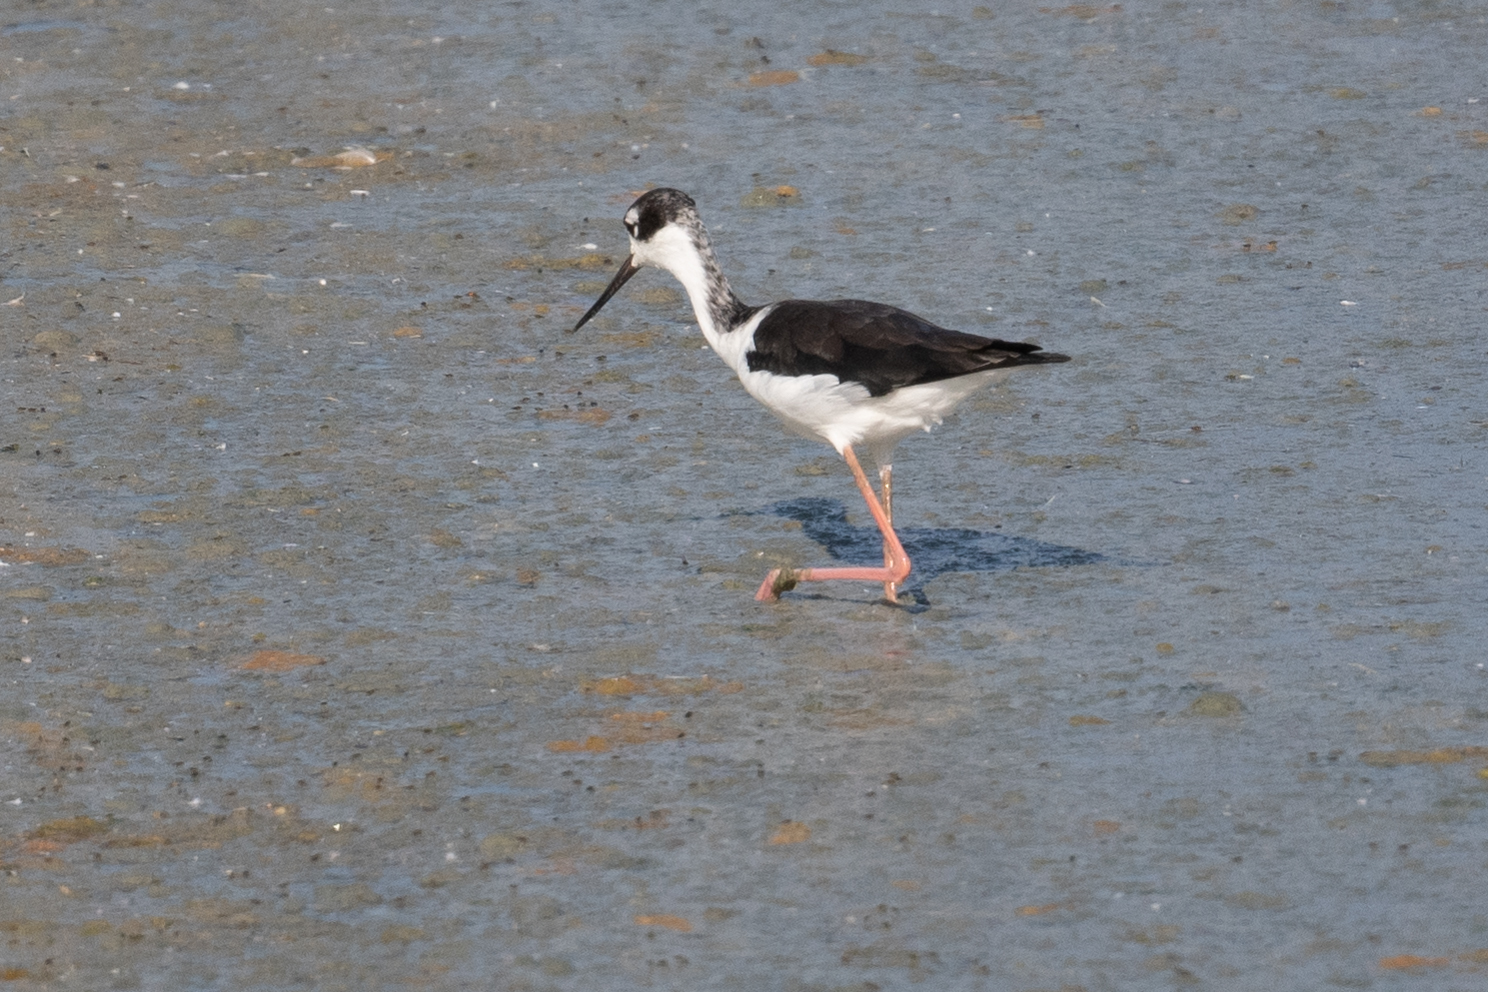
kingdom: Animalia
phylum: Chordata
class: Aves
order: Charadriiformes
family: Recurvirostridae
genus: Himantopus
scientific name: Himantopus mexicanus
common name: Black-necked stilt
